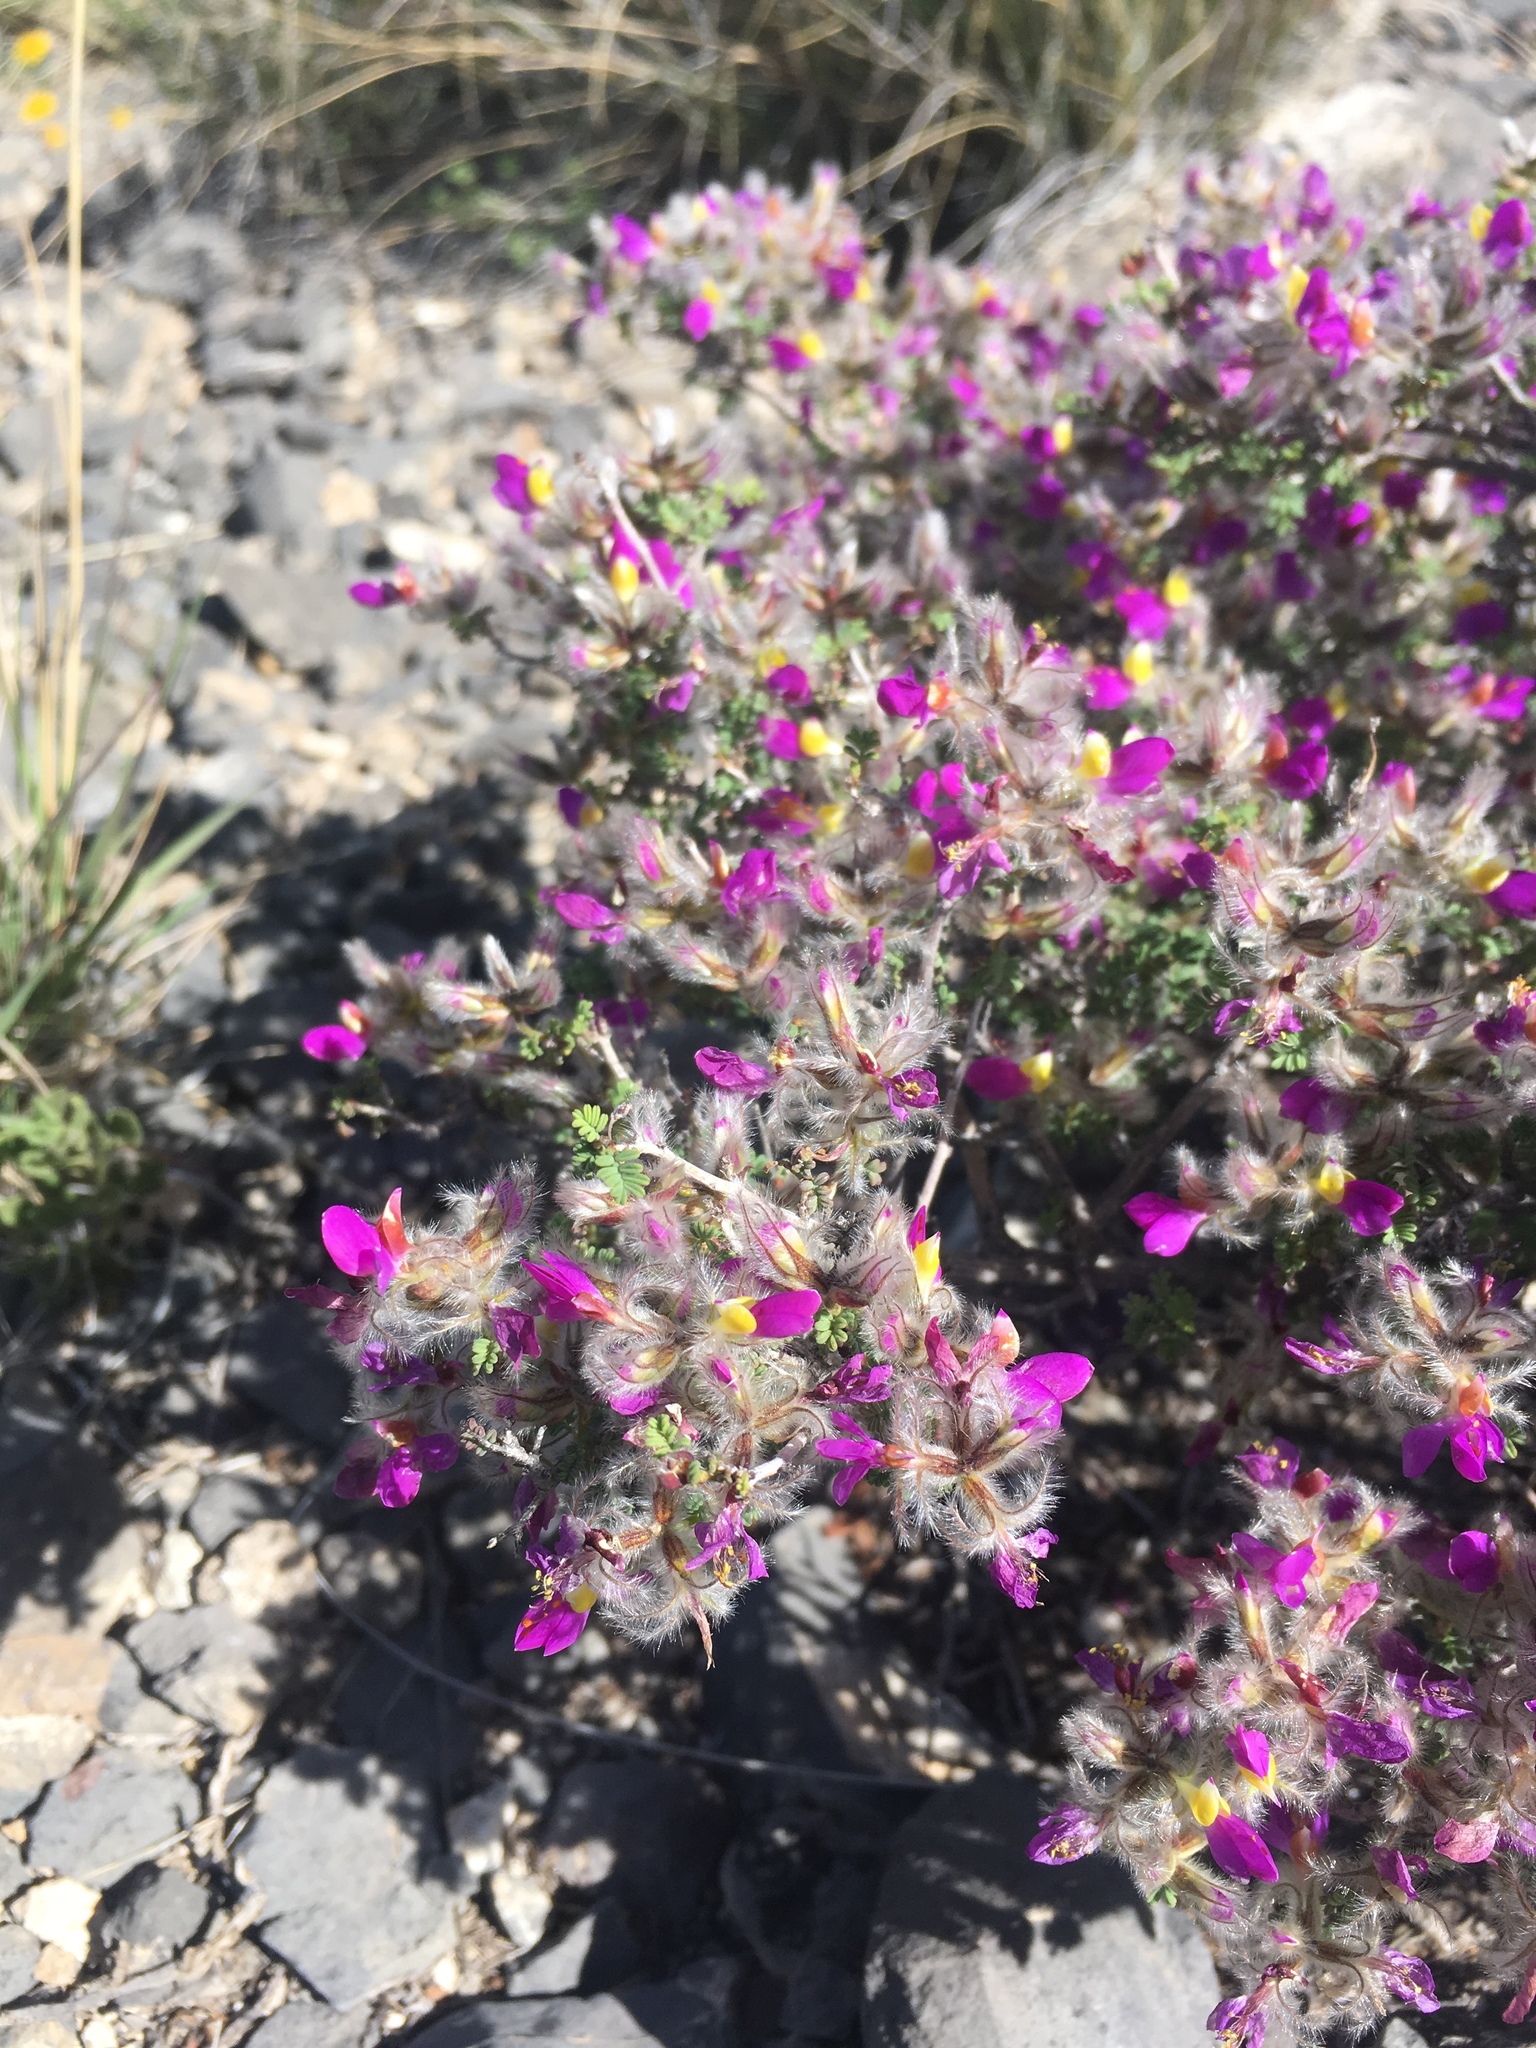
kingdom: Plantae
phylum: Tracheophyta
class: Magnoliopsida
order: Fabales
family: Fabaceae
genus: Dalea
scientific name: Dalea formosa
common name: Feather-plume dalea
